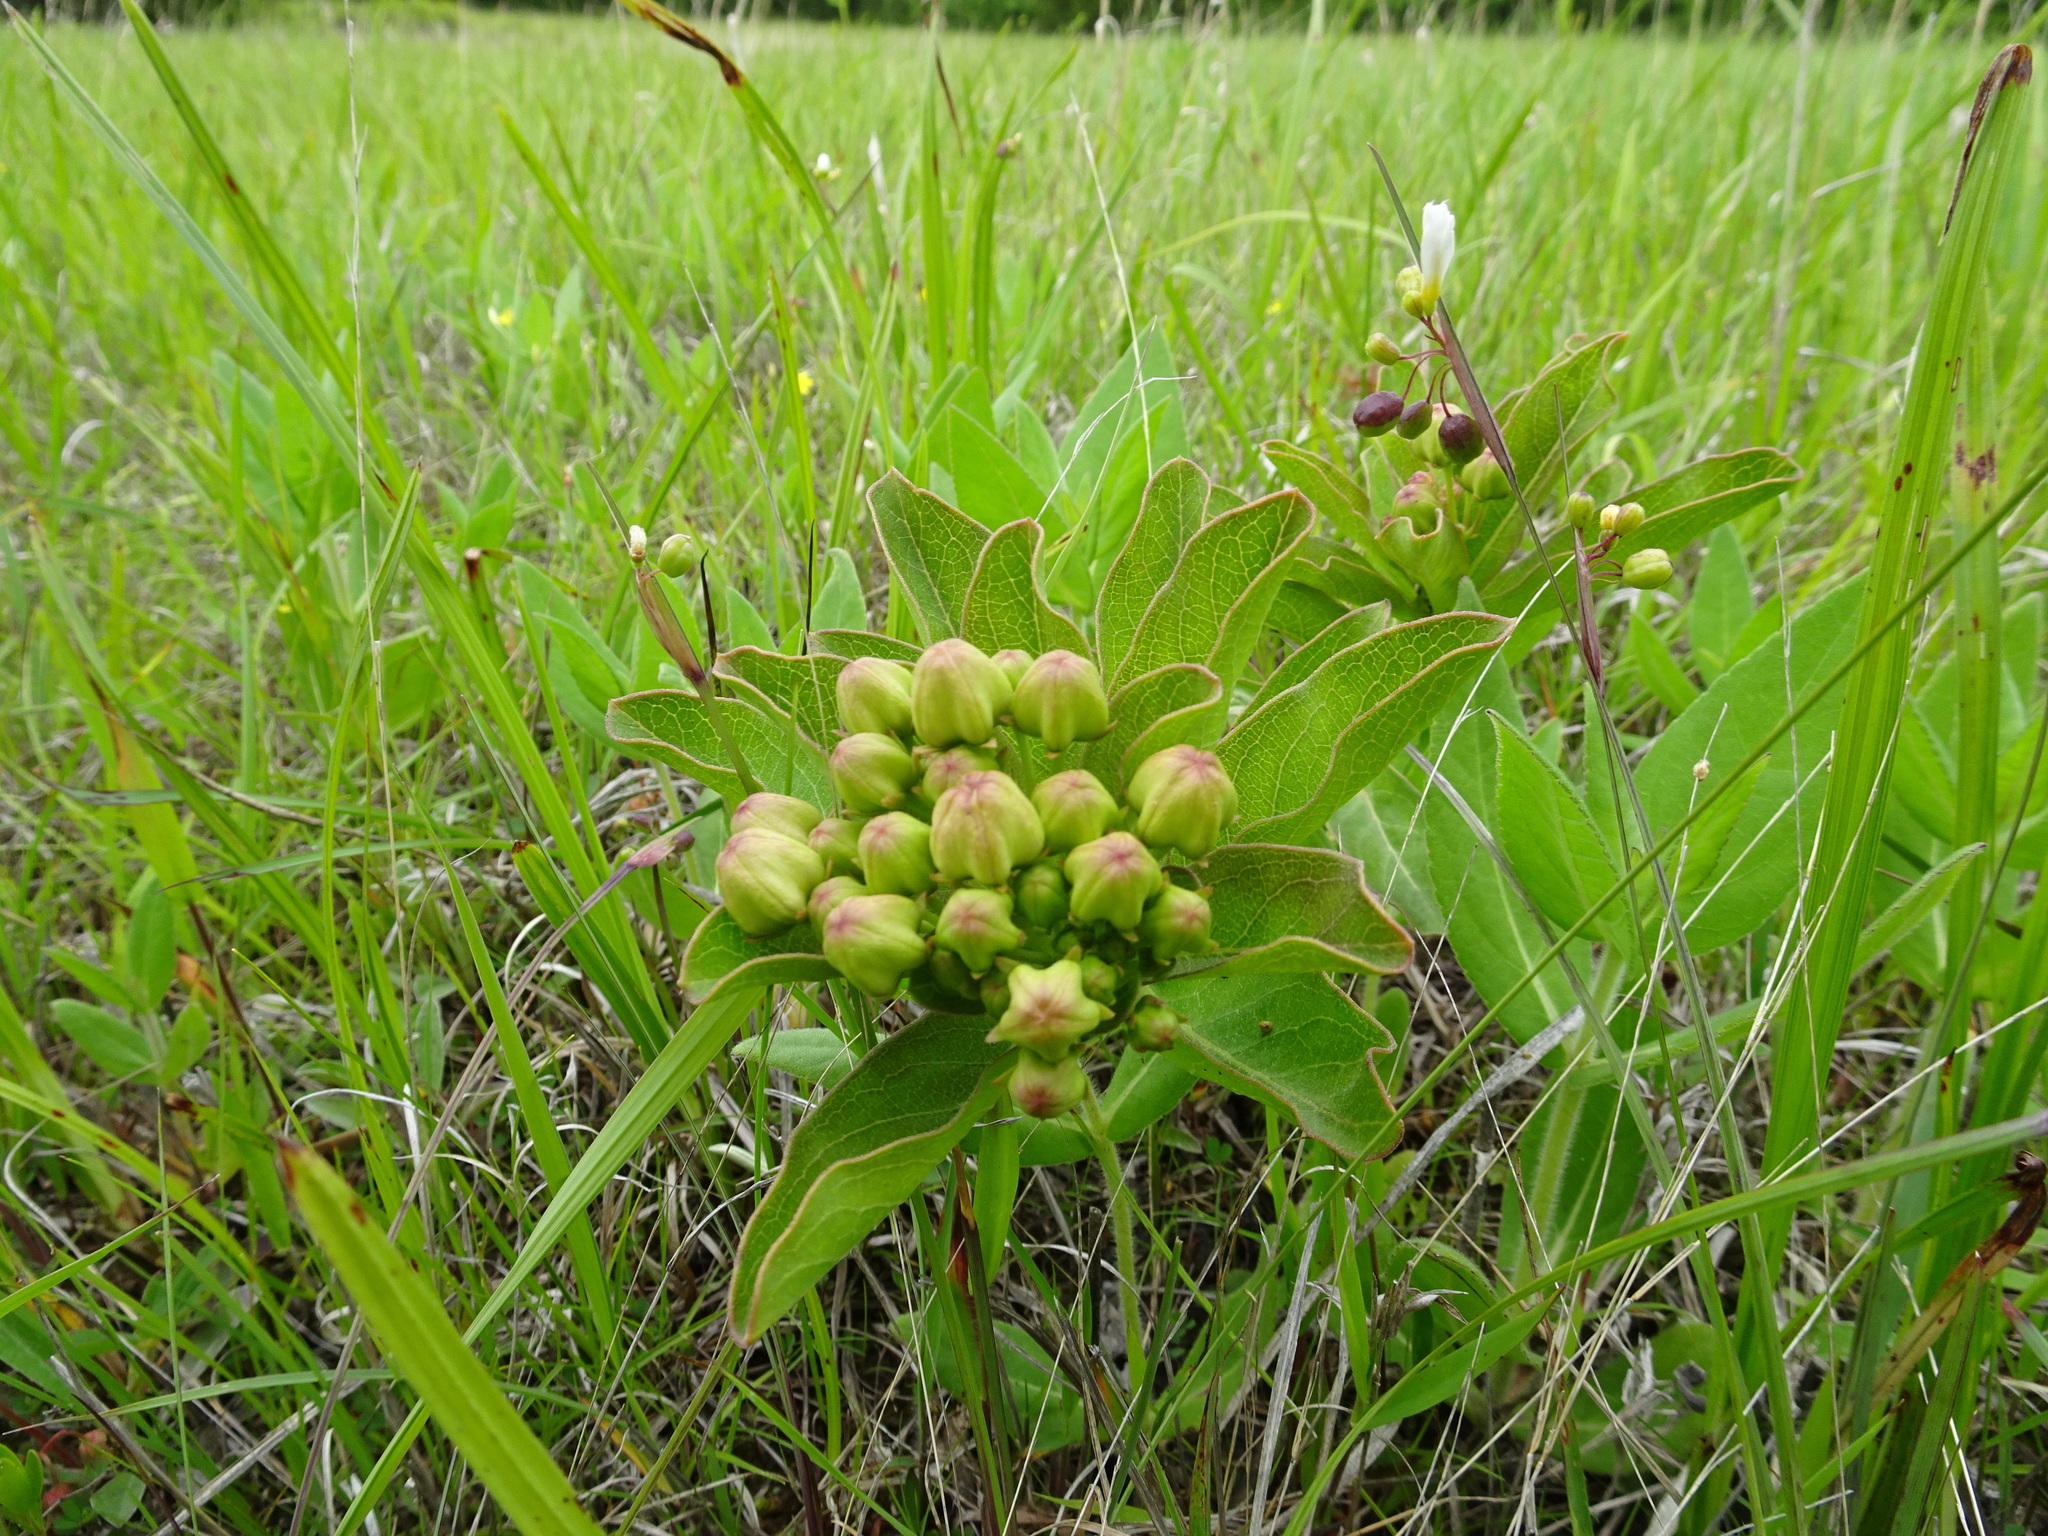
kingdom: Plantae
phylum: Tracheophyta
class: Magnoliopsida
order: Gentianales
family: Apocynaceae
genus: Asclepias
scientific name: Asclepias viridis
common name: Antelope-horns
